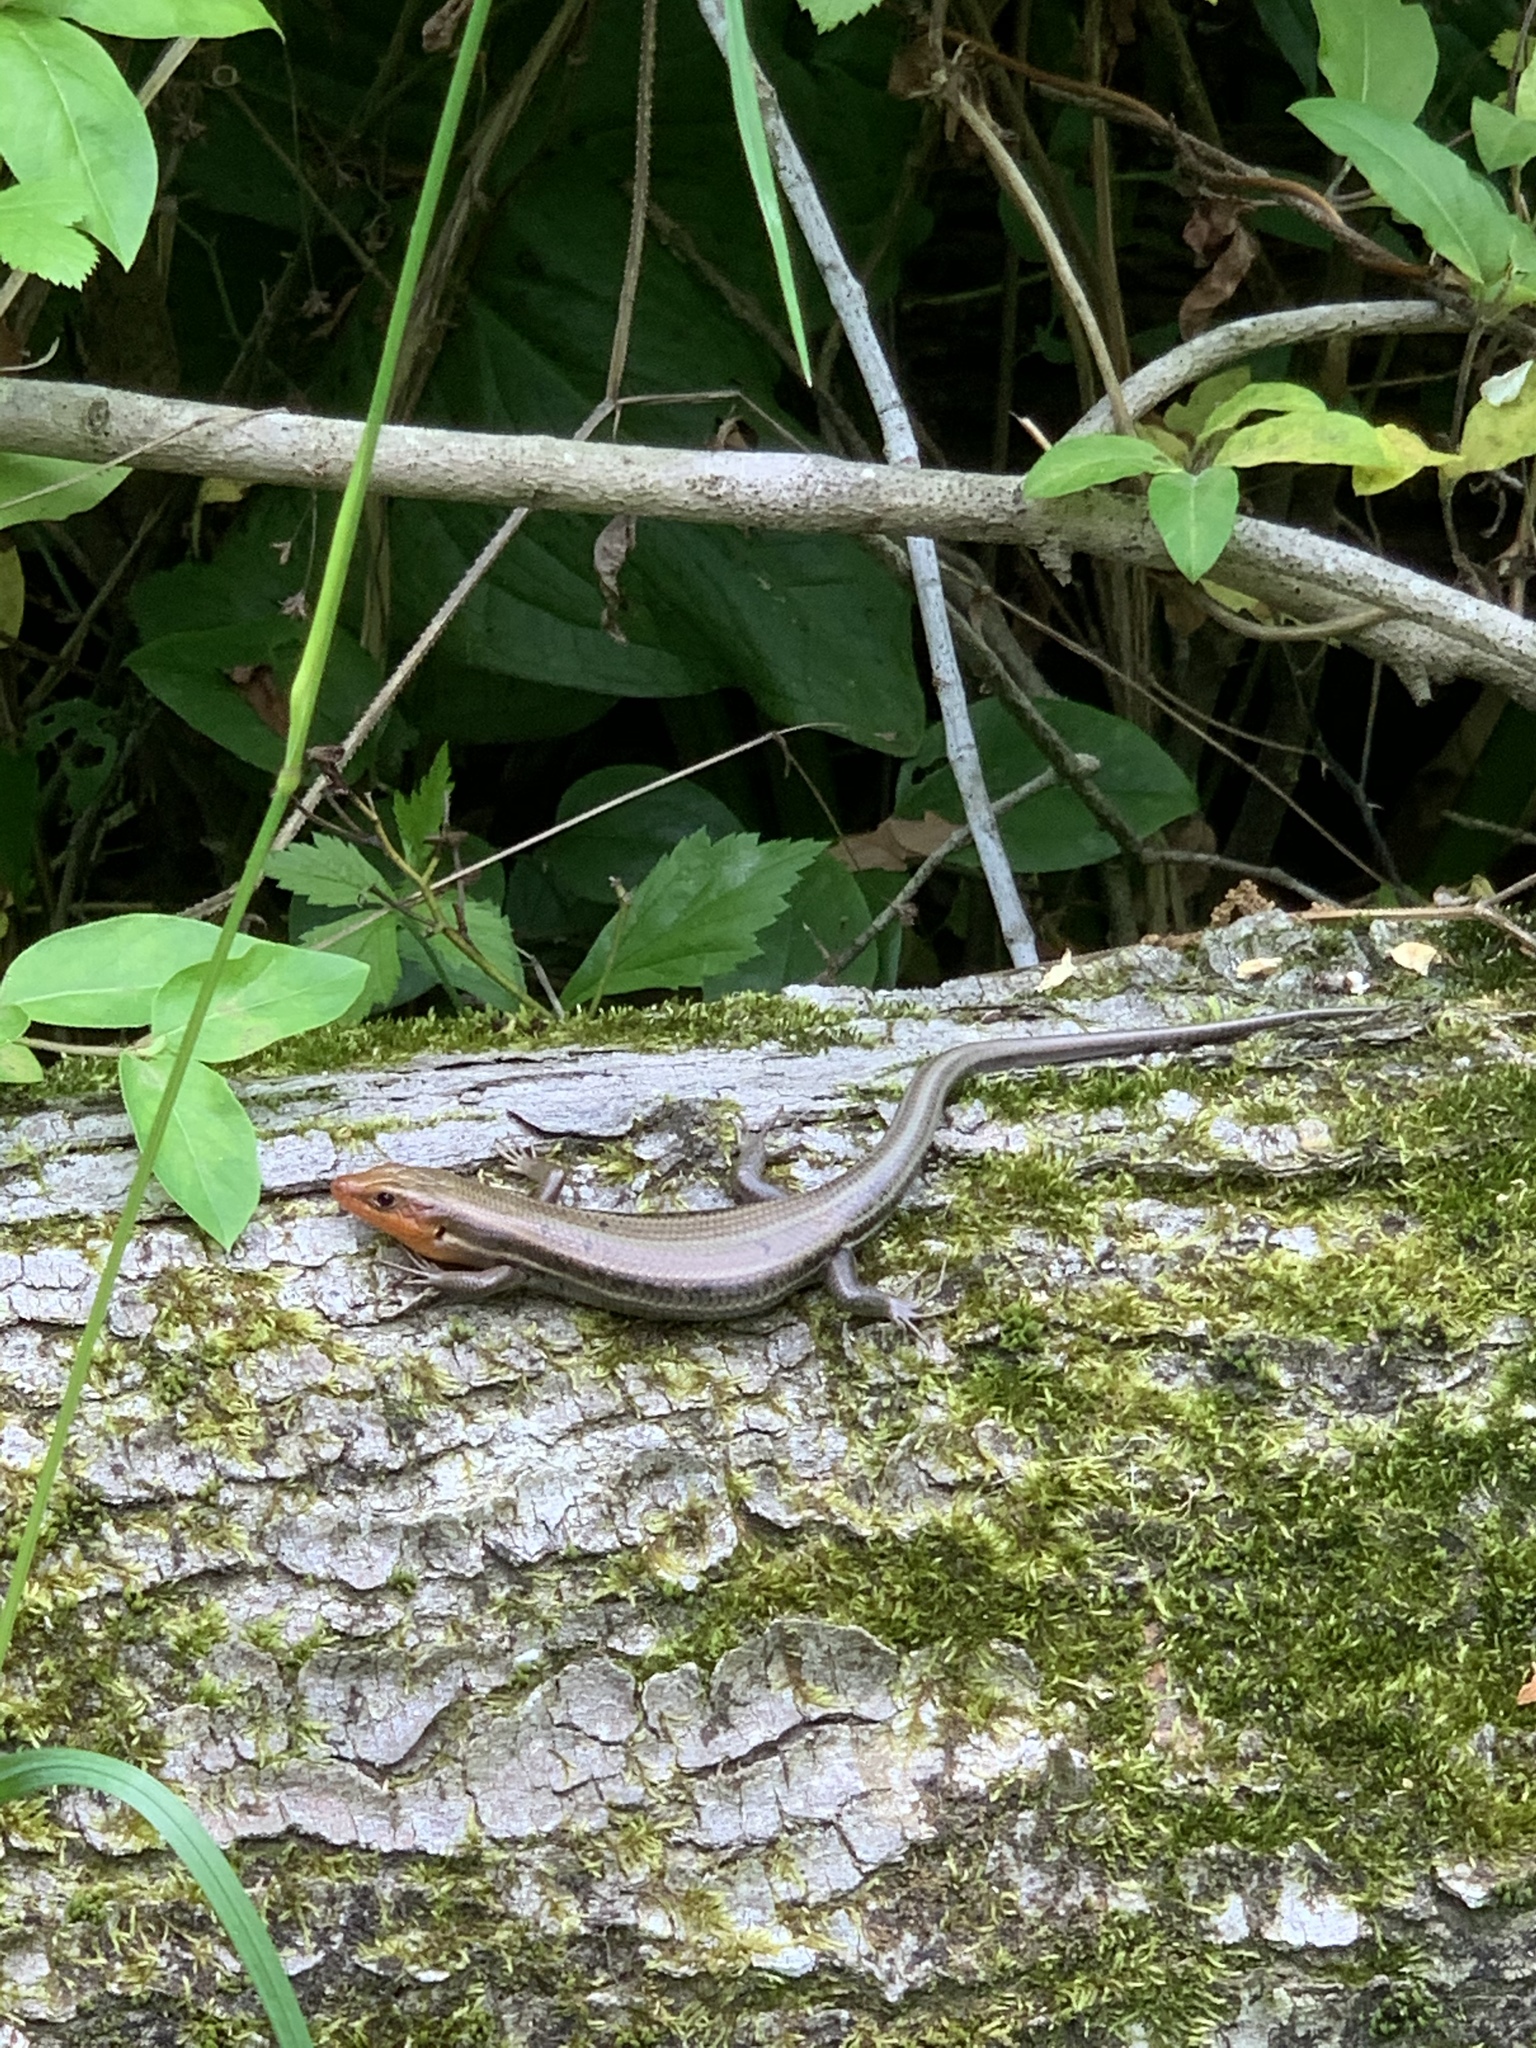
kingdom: Animalia
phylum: Chordata
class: Squamata
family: Scincidae
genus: Plestiodon
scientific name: Plestiodon fasciatus
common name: Five-lined skink
